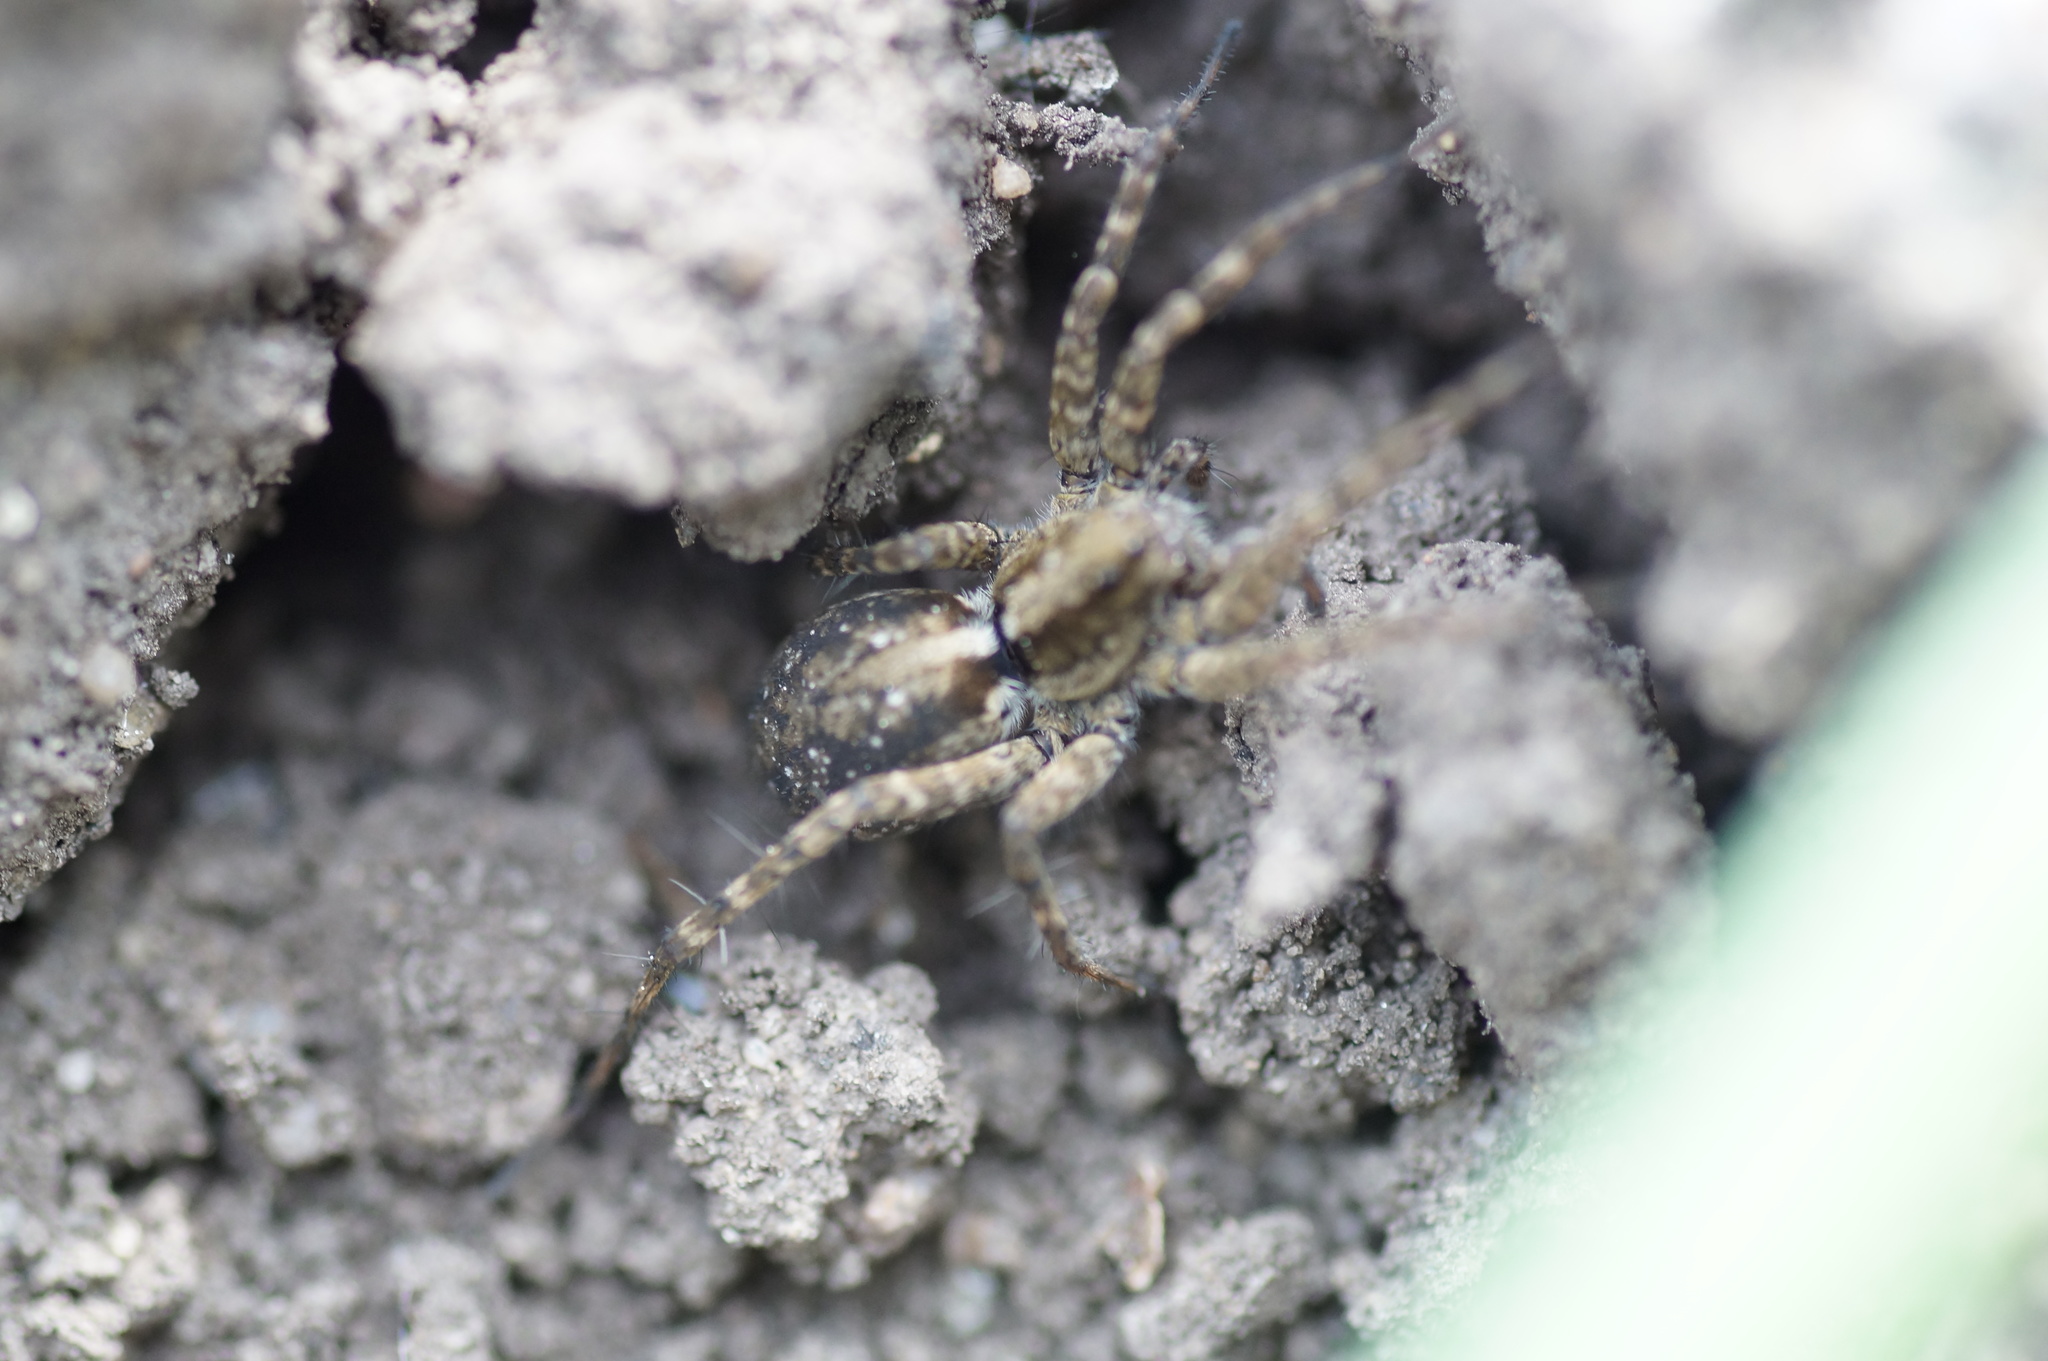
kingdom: Animalia
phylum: Arthropoda
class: Arachnida
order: Araneae
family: Lycosidae
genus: Pardosa
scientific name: Pardosa
